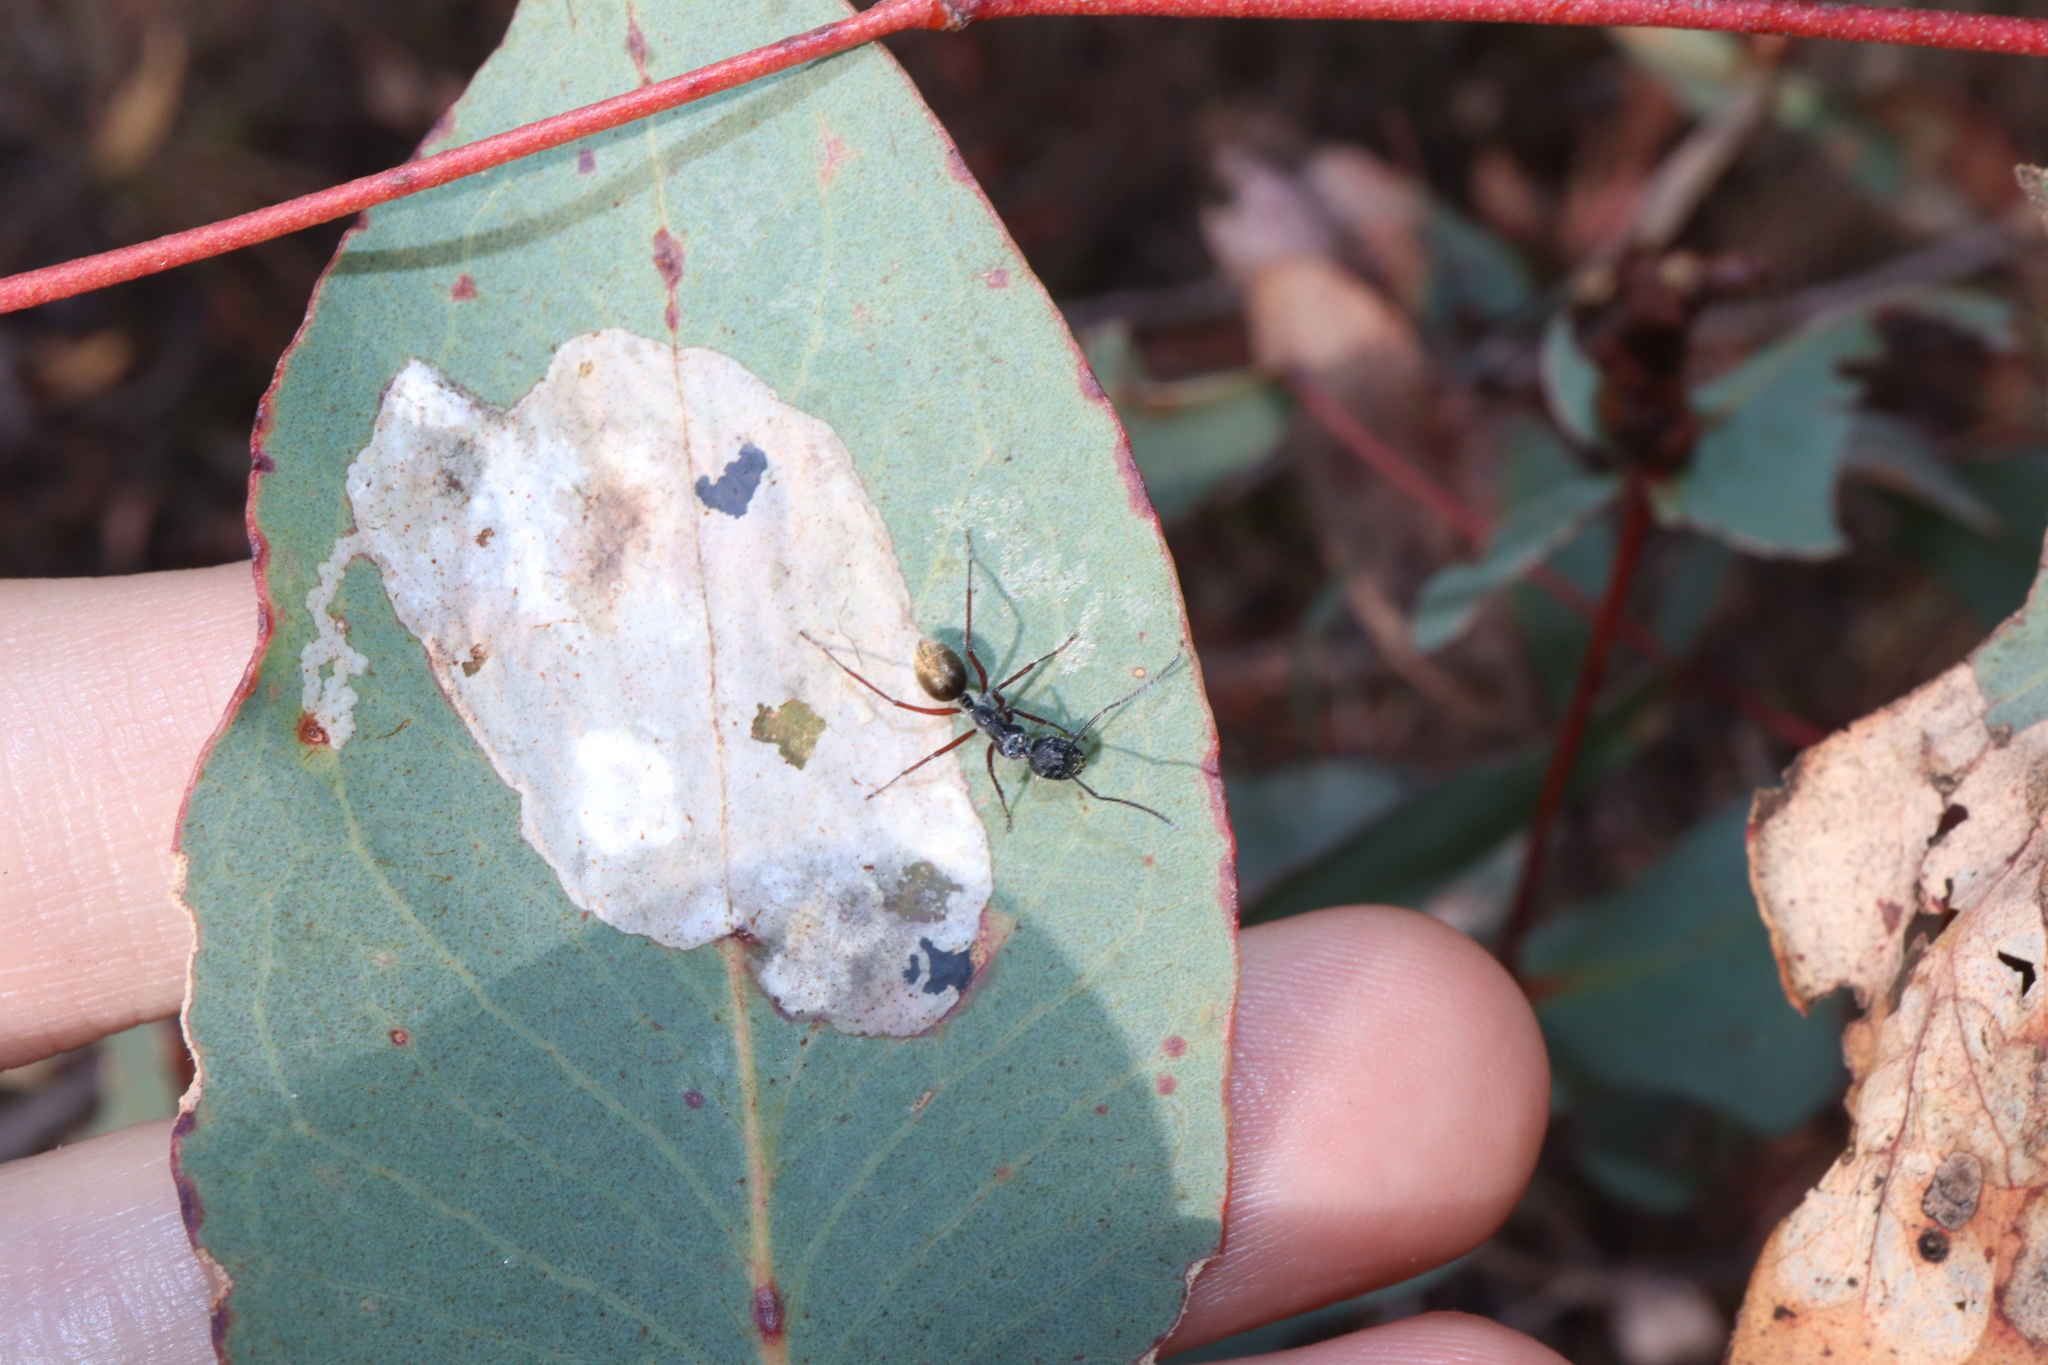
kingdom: Animalia
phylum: Arthropoda
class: Insecta
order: Hymenoptera
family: Formicidae
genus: Camponotus
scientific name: Camponotus suffusus
